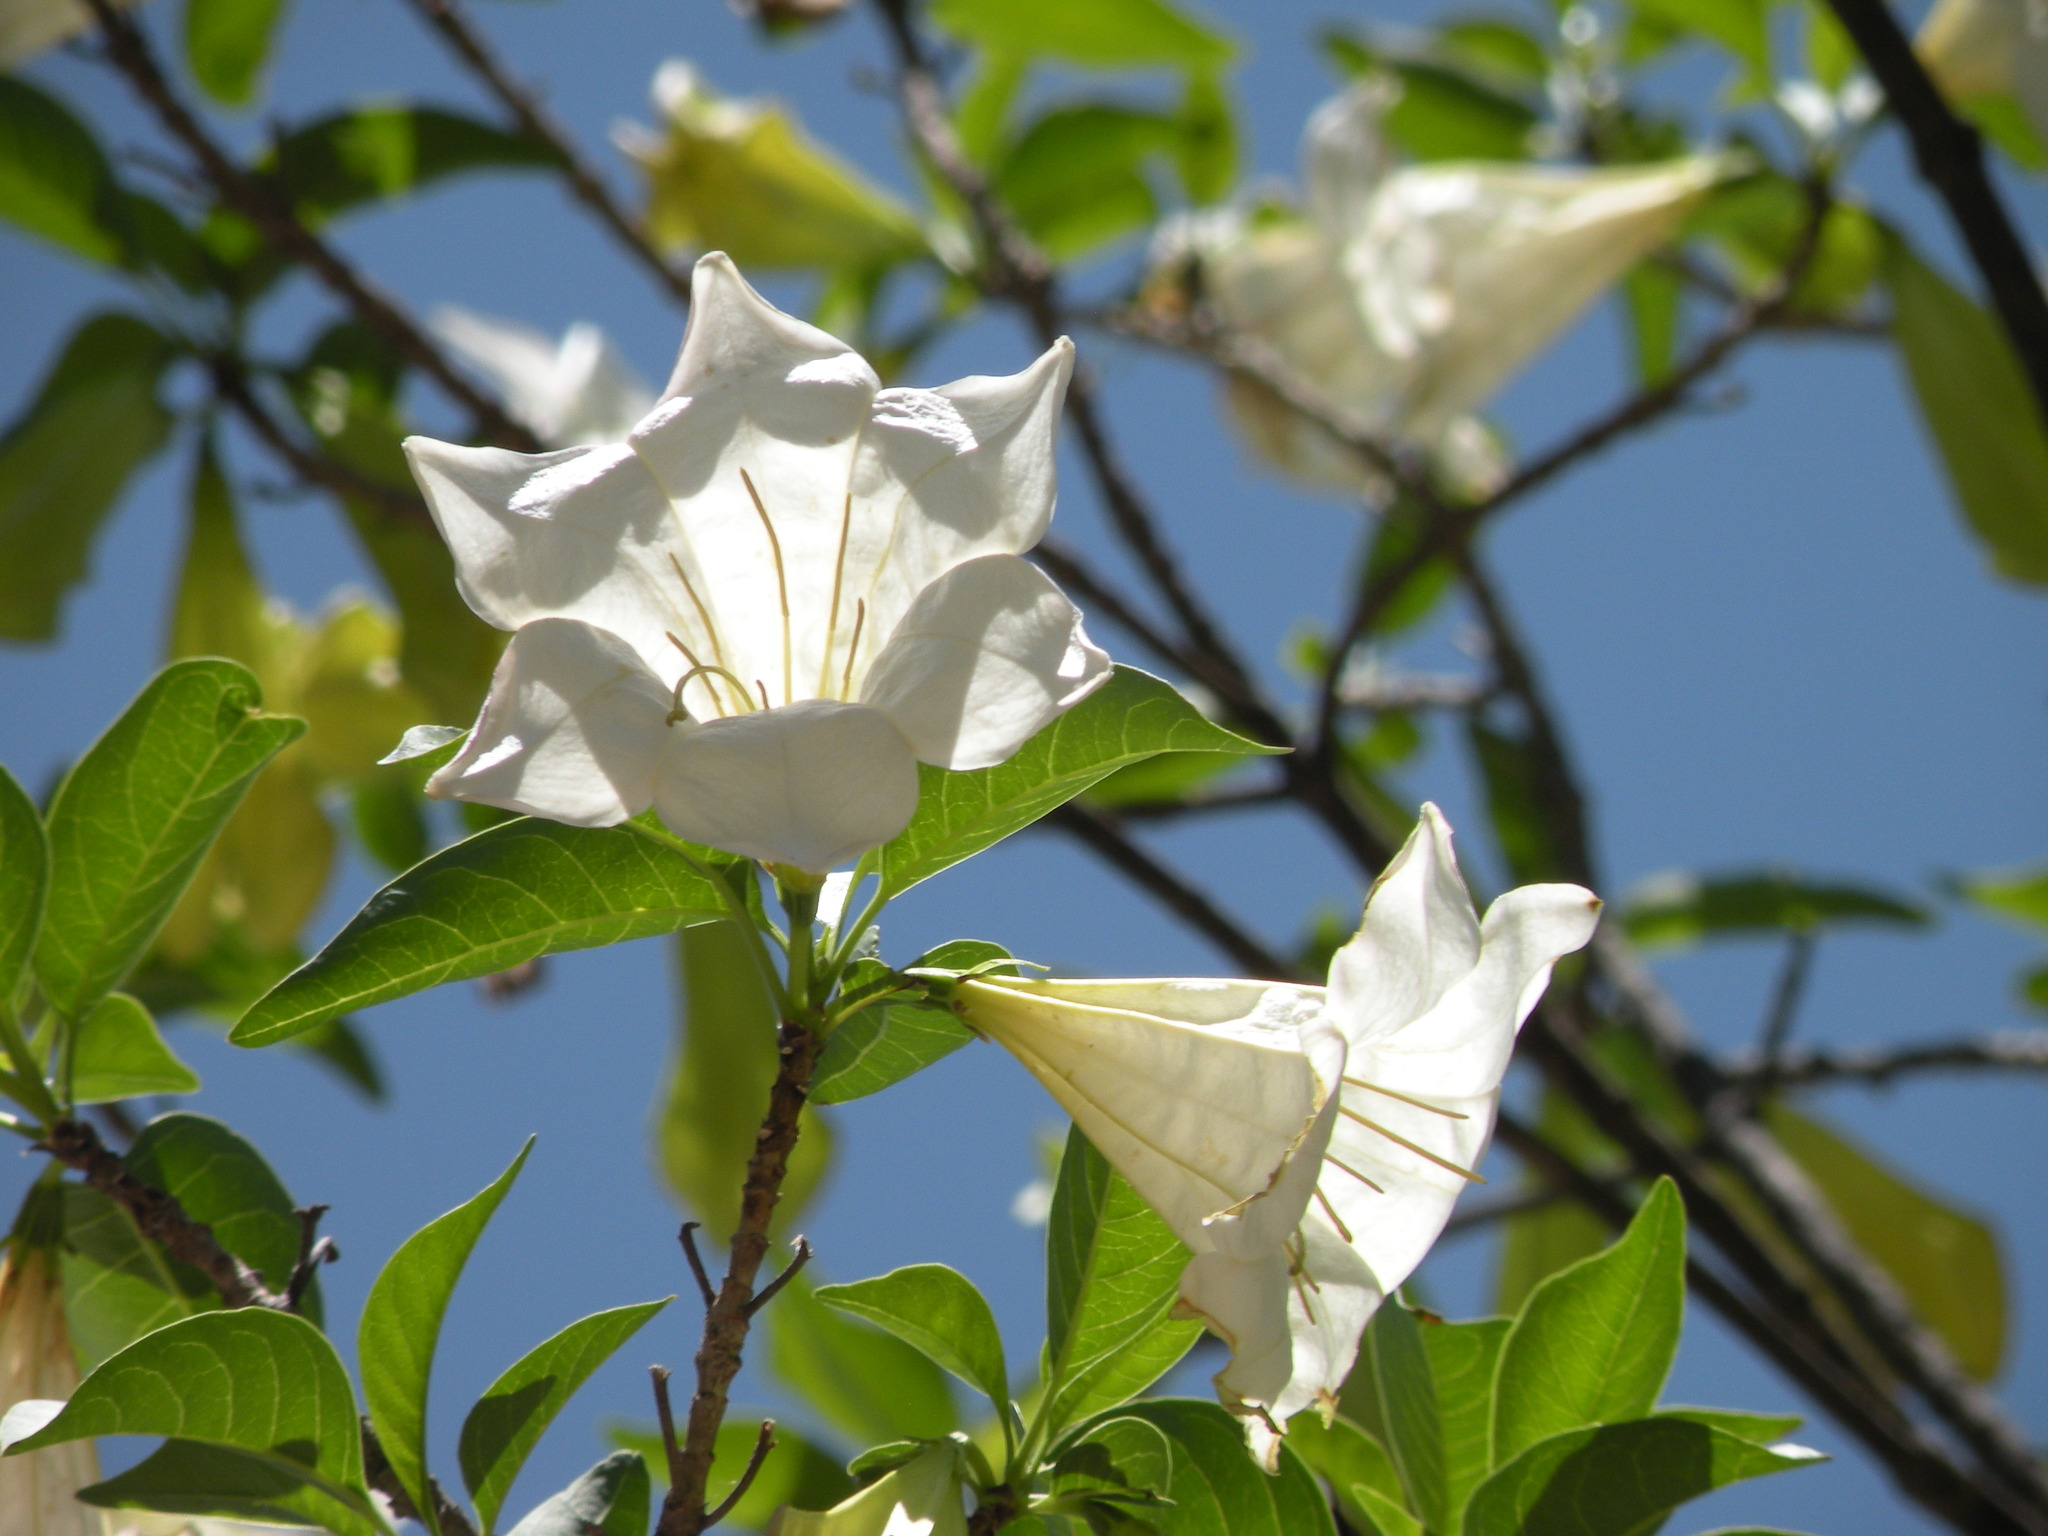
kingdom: Plantae
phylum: Tracheophyta
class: Magnoliopsida
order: Gentianales
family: Rubiaceae
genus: Hintonia
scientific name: Hintonia latiflora
